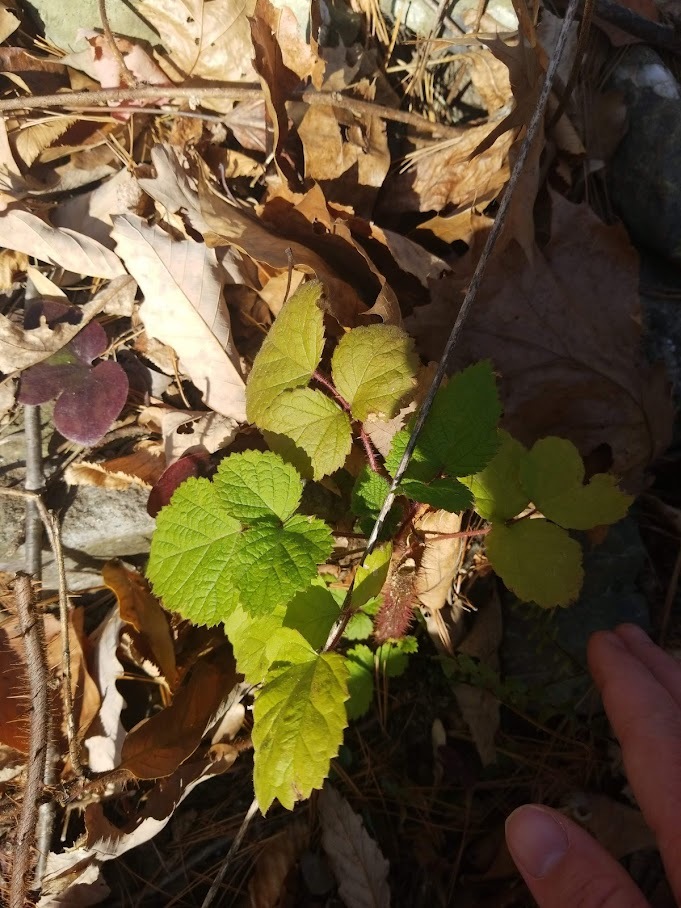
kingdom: Plantae
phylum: Tracheophyta
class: Magnoliopsida
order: Rosales
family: Rosaceae
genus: Rubus
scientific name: Rubus phoenicolasius
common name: Japanese wineberry
